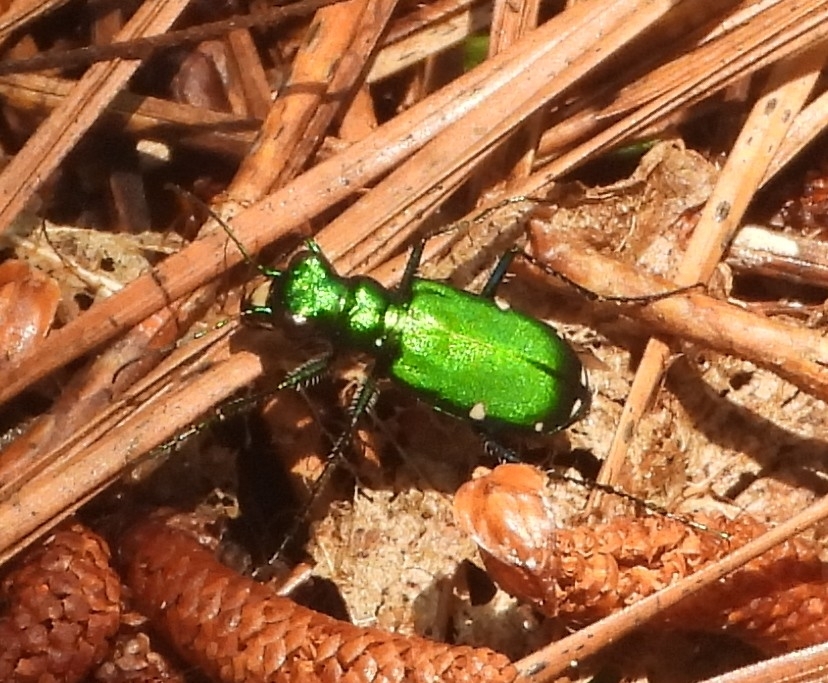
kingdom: Animalia
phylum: Arthropoda
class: Insecta
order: Coleoptera
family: Carabidae
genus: Cicindela
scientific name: Cicindela sexguttata
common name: Six-spotted tiger beetle
